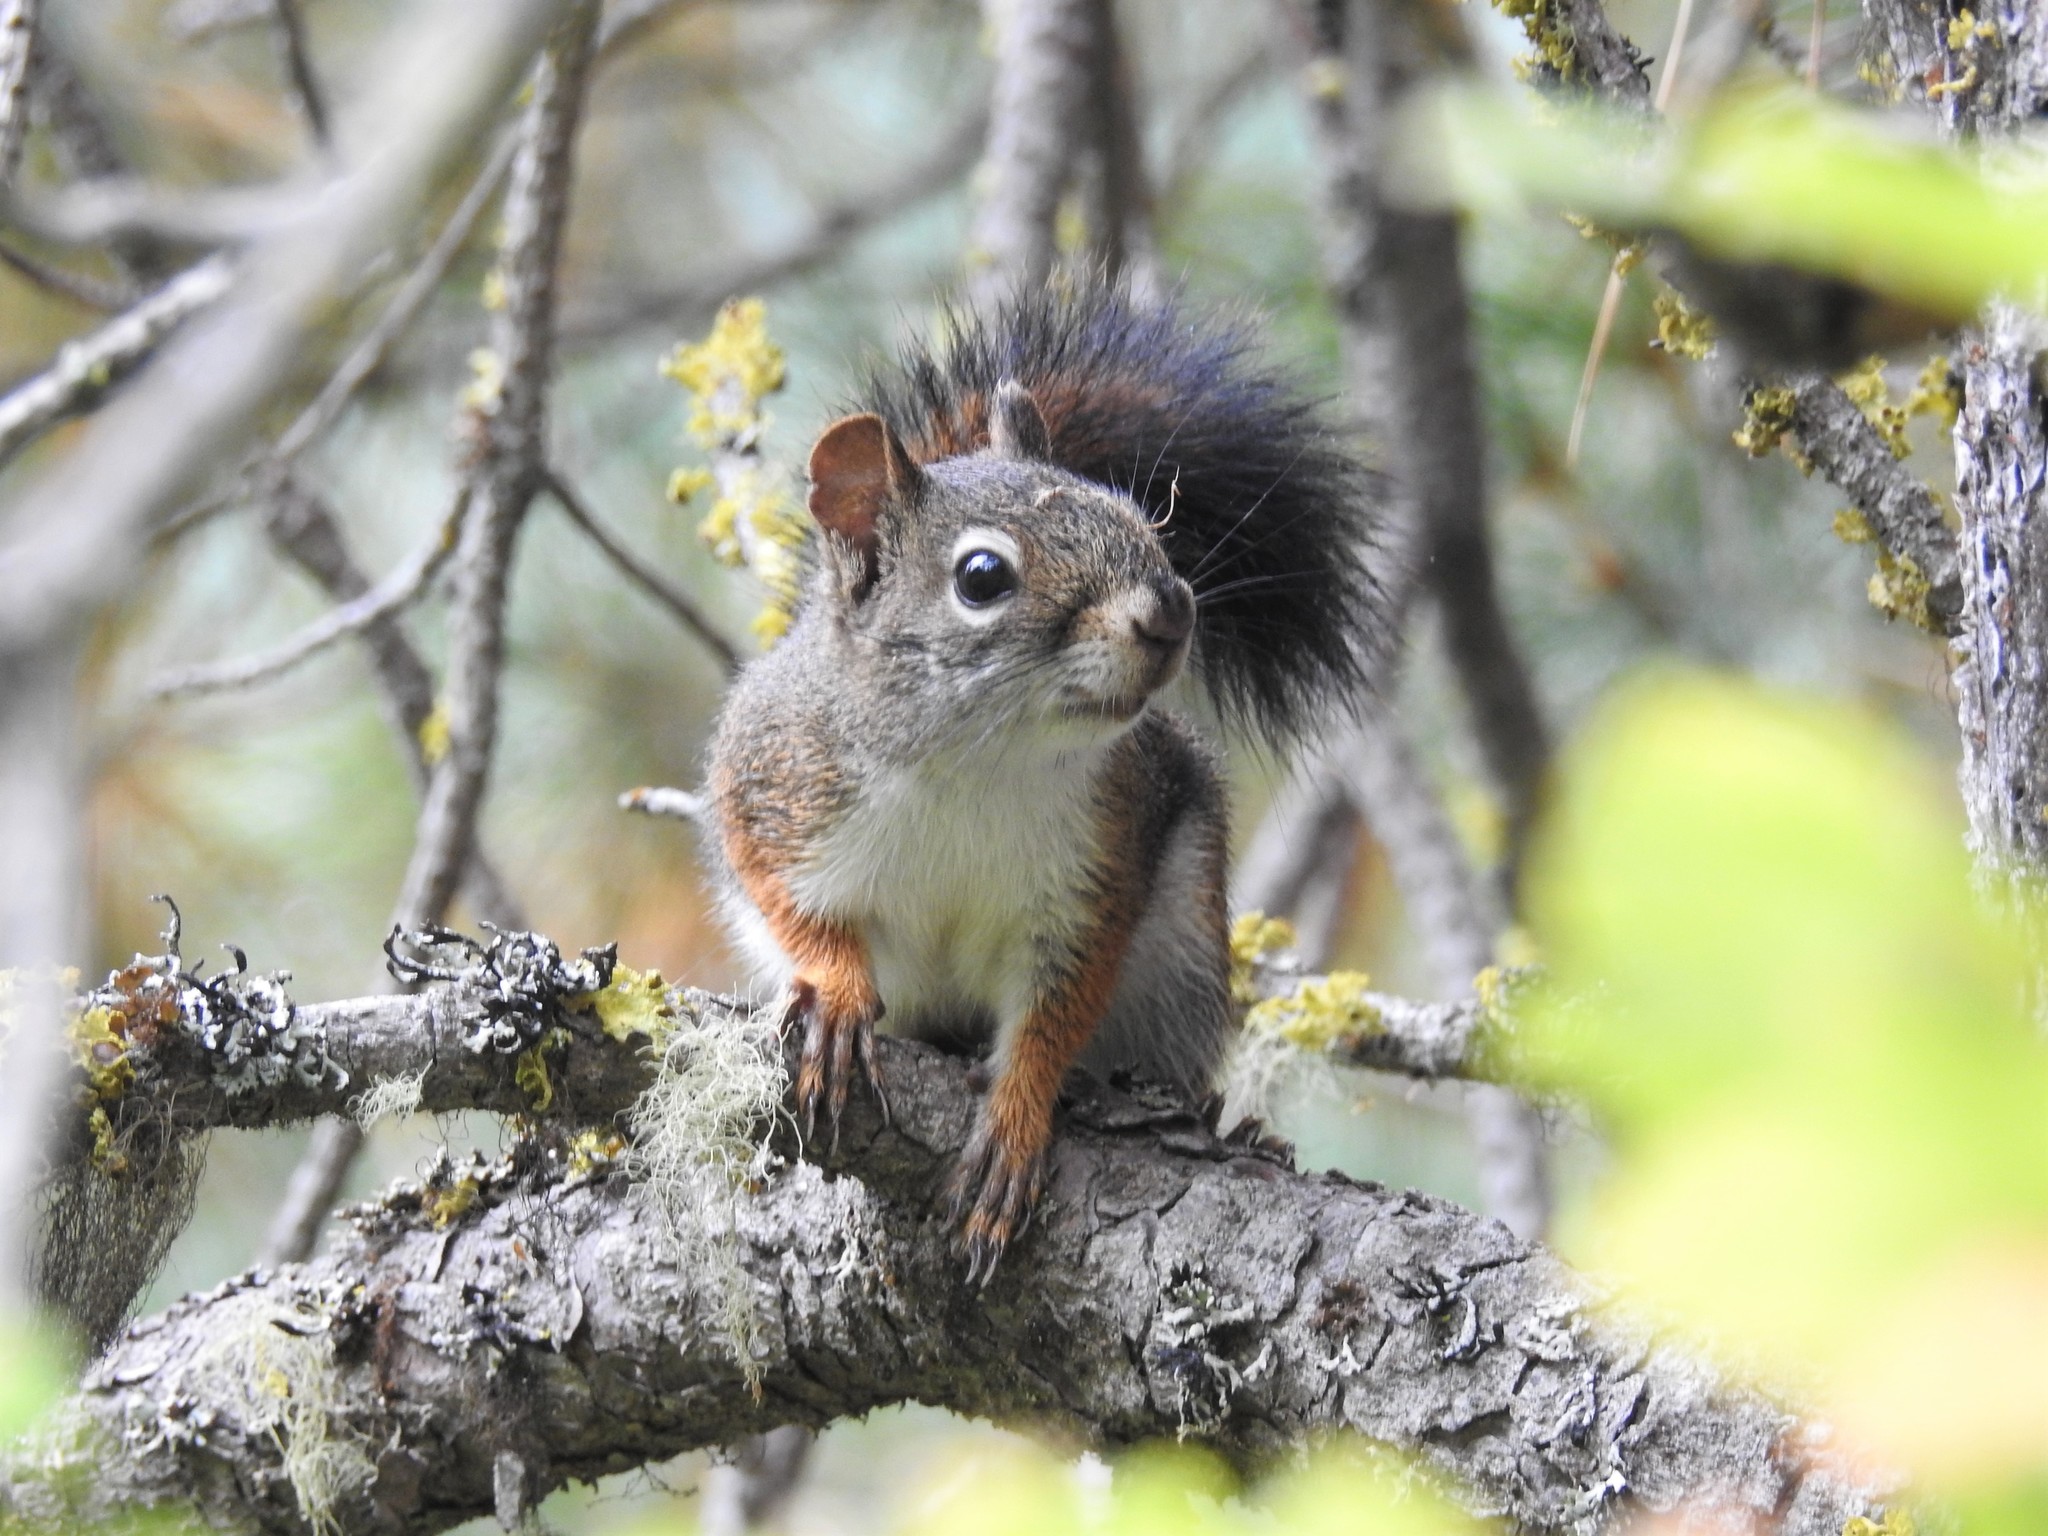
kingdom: Animalia
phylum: Chordata
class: Mammalia
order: Rodentia
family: Sciuridae
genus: Tamiasciurus
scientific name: Tamiasciurus hudsonicus
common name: Red squirrel
